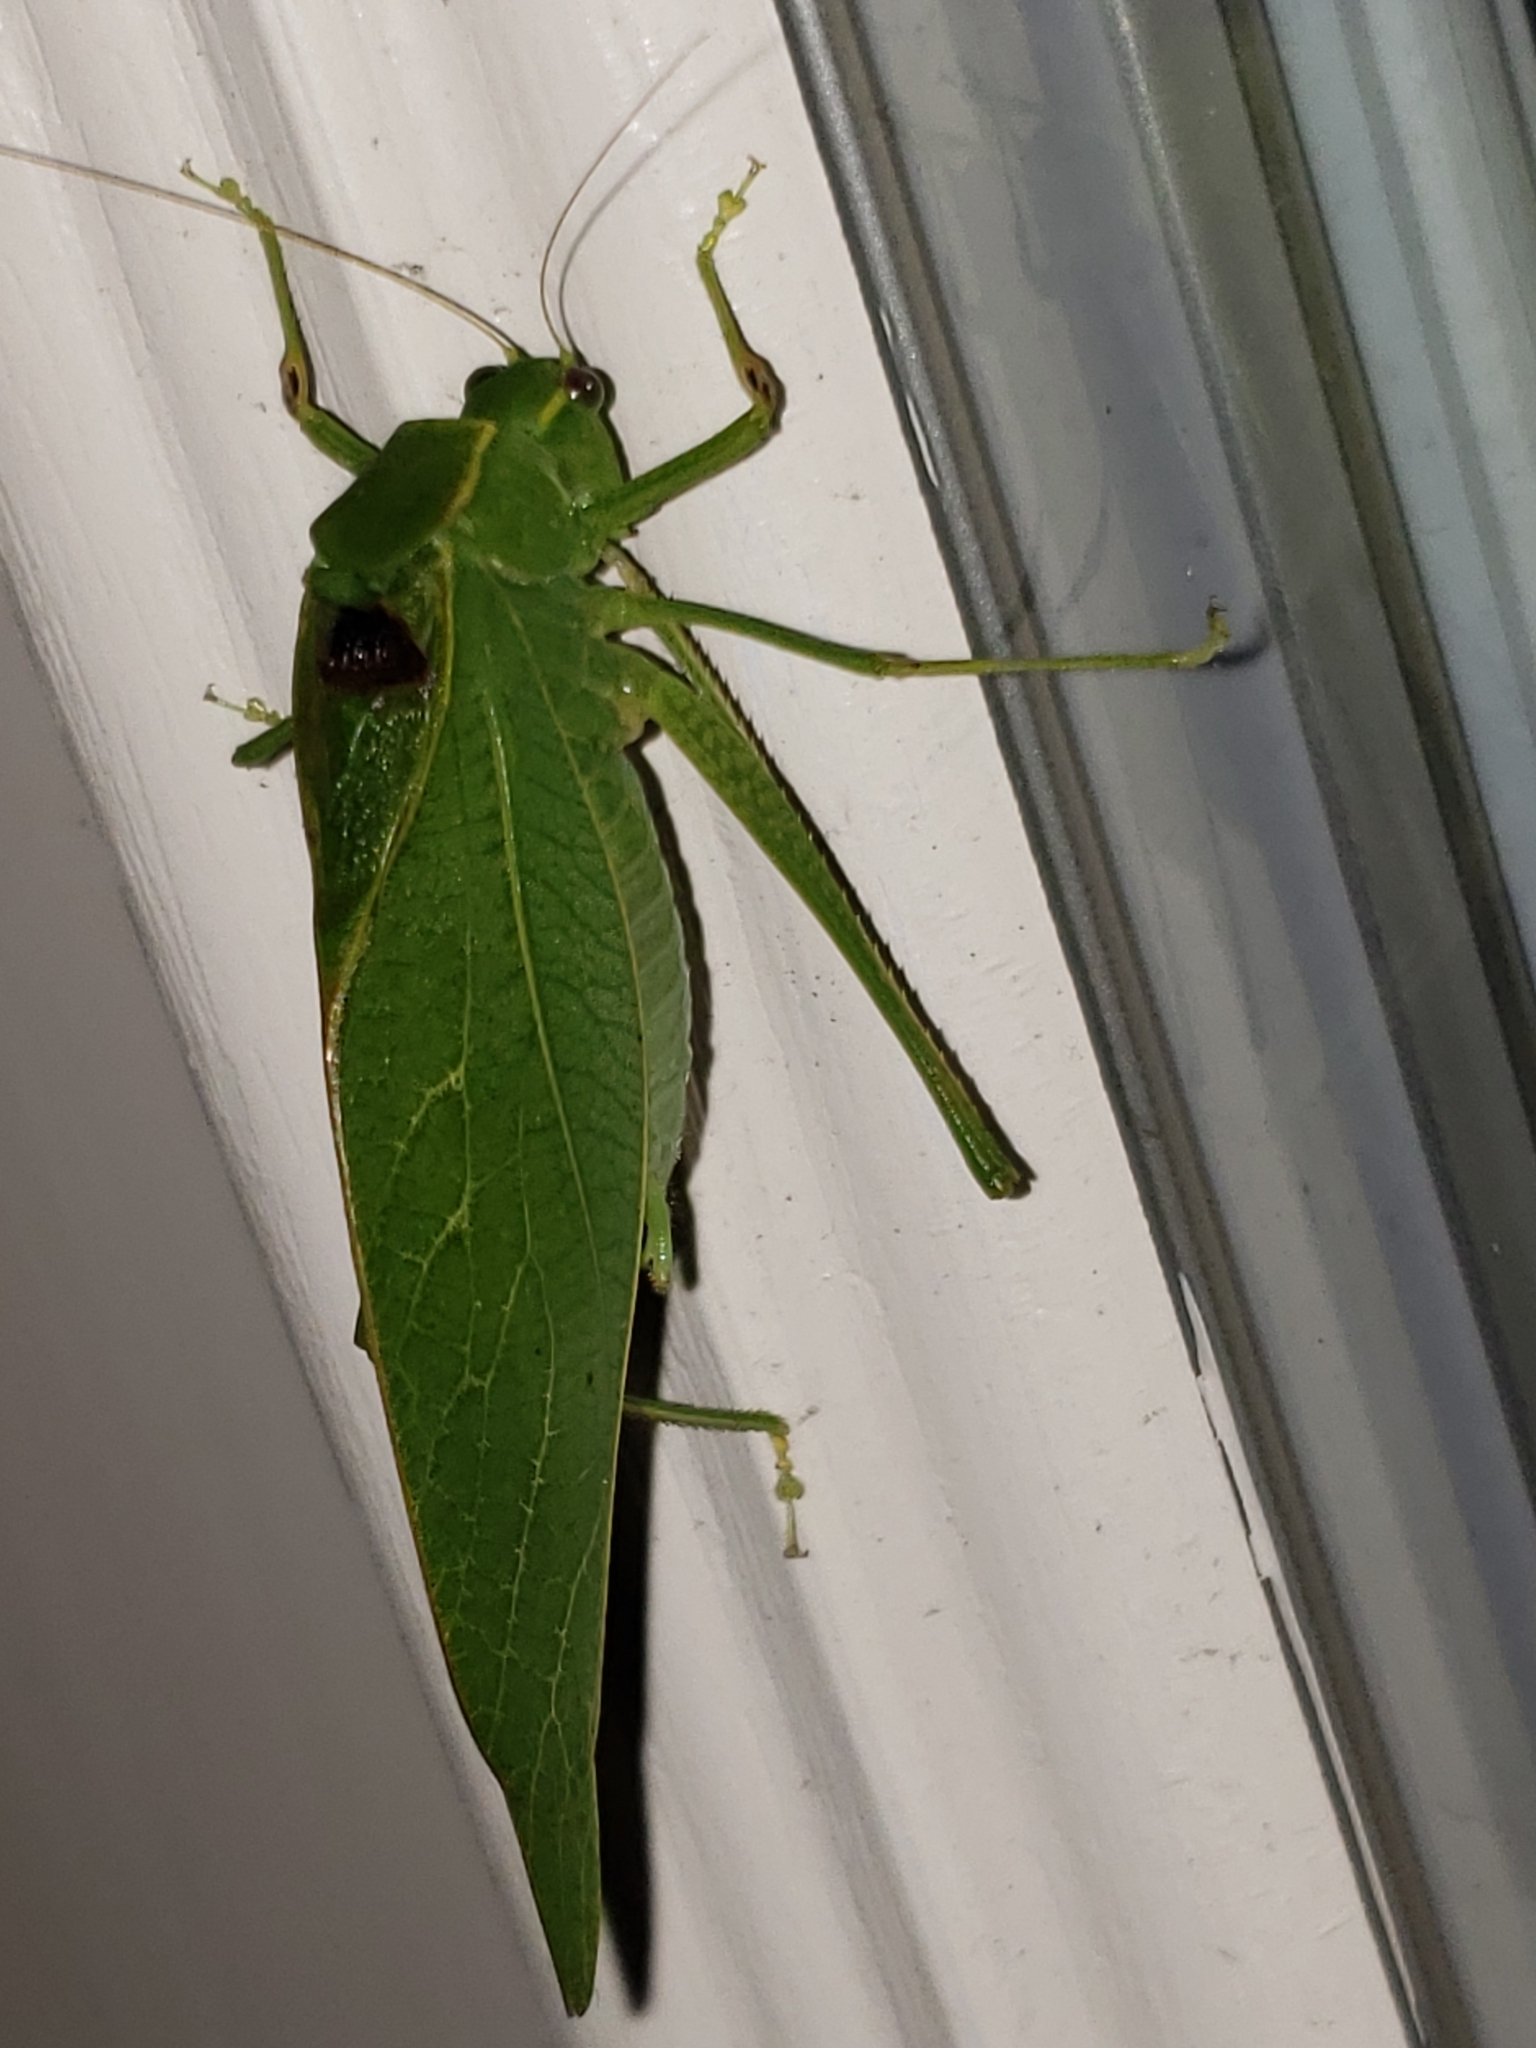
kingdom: Animalia
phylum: Arthropoda
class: Insecta
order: Orthoptera
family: Tettigoniidae
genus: Microcentrum
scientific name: Microcentrum retinerve
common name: Angular-winged katydid
